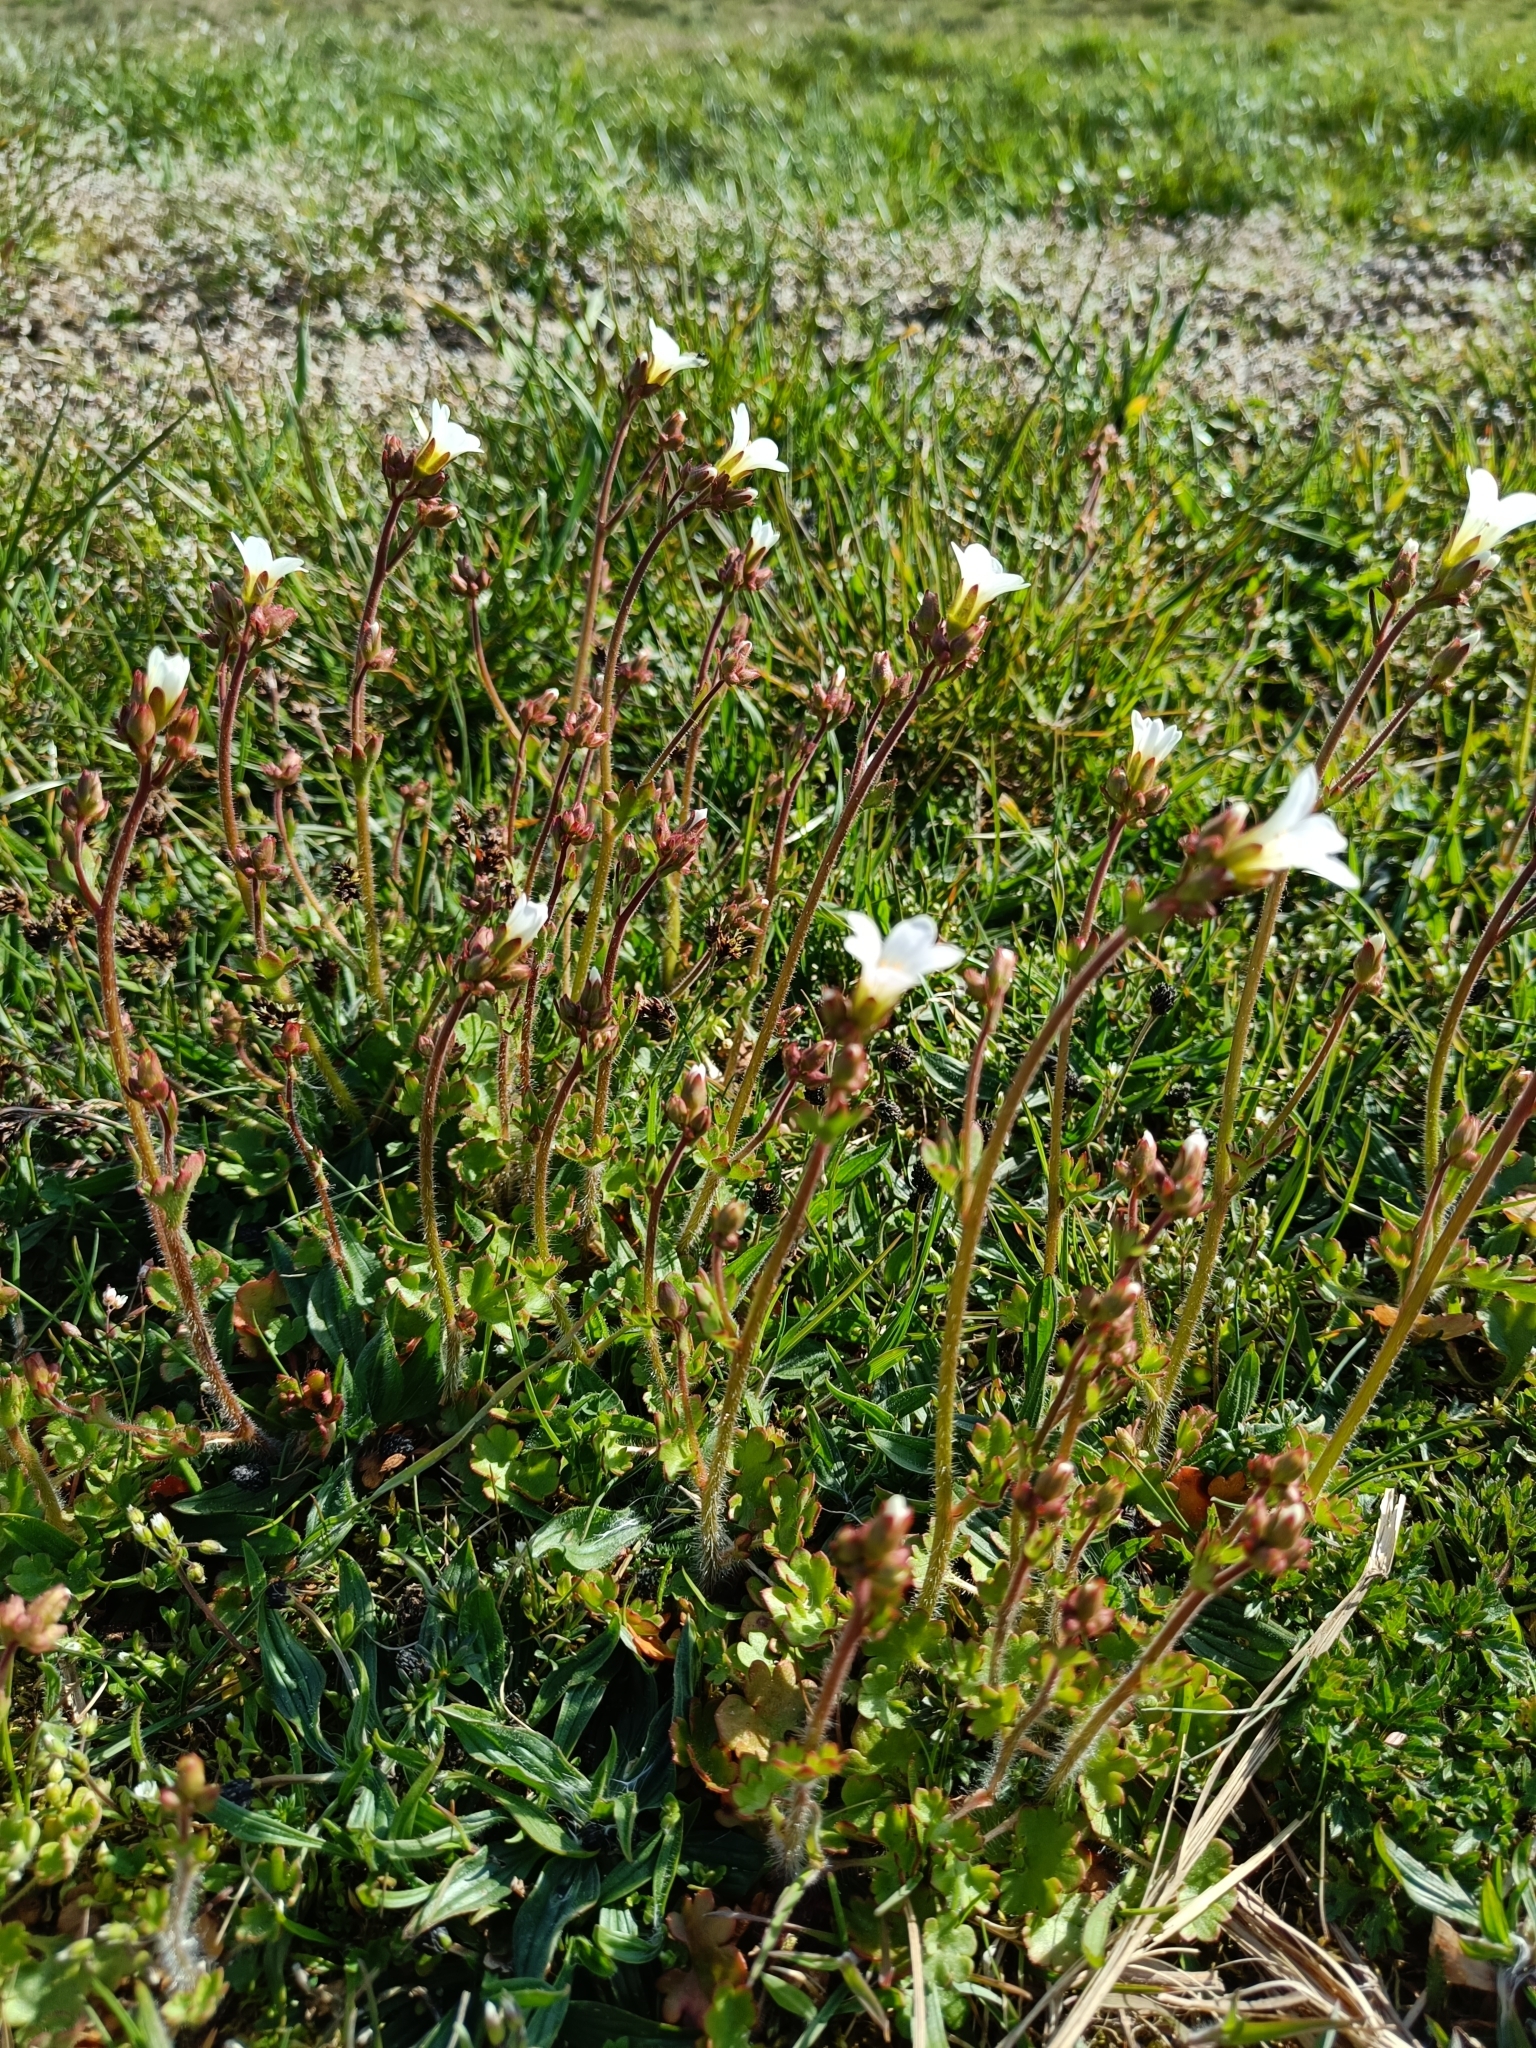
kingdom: Plantae
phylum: Tracheophyta
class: Magnoliopsida
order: Saxifragales
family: Saxifragaceae
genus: Saxifraga
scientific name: Saxifraga granulata
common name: Meadow saxifrage
